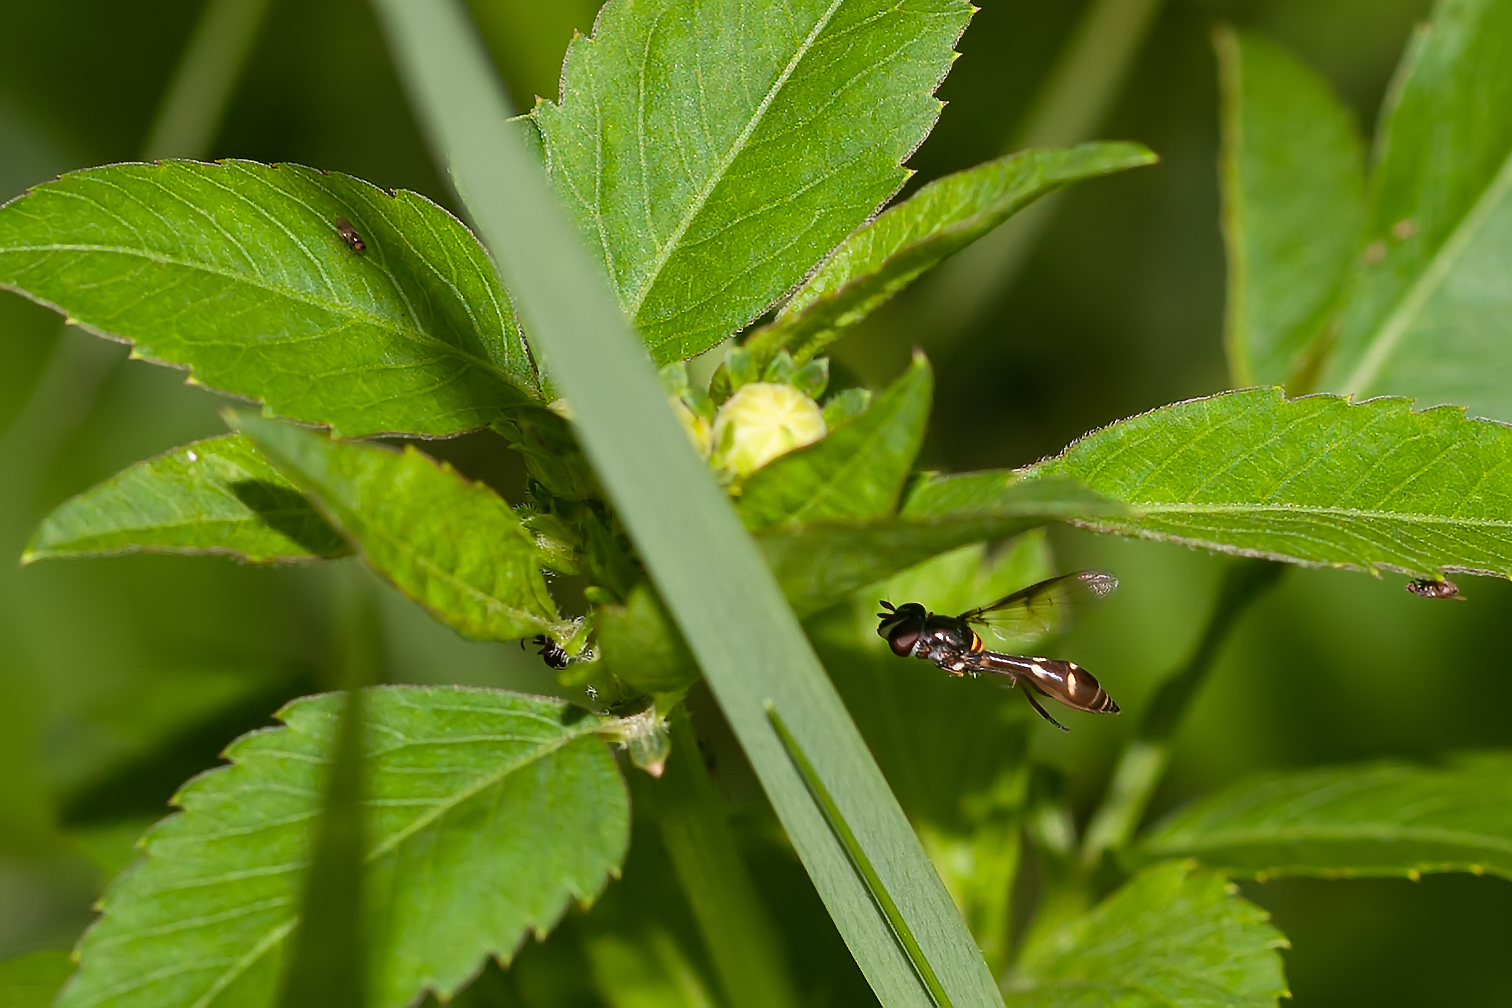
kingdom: Animalia
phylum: Arthropoda
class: Insecta
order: Diptera
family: Syrphidae
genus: Dioprosopa
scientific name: Dioprosopa clavatus
